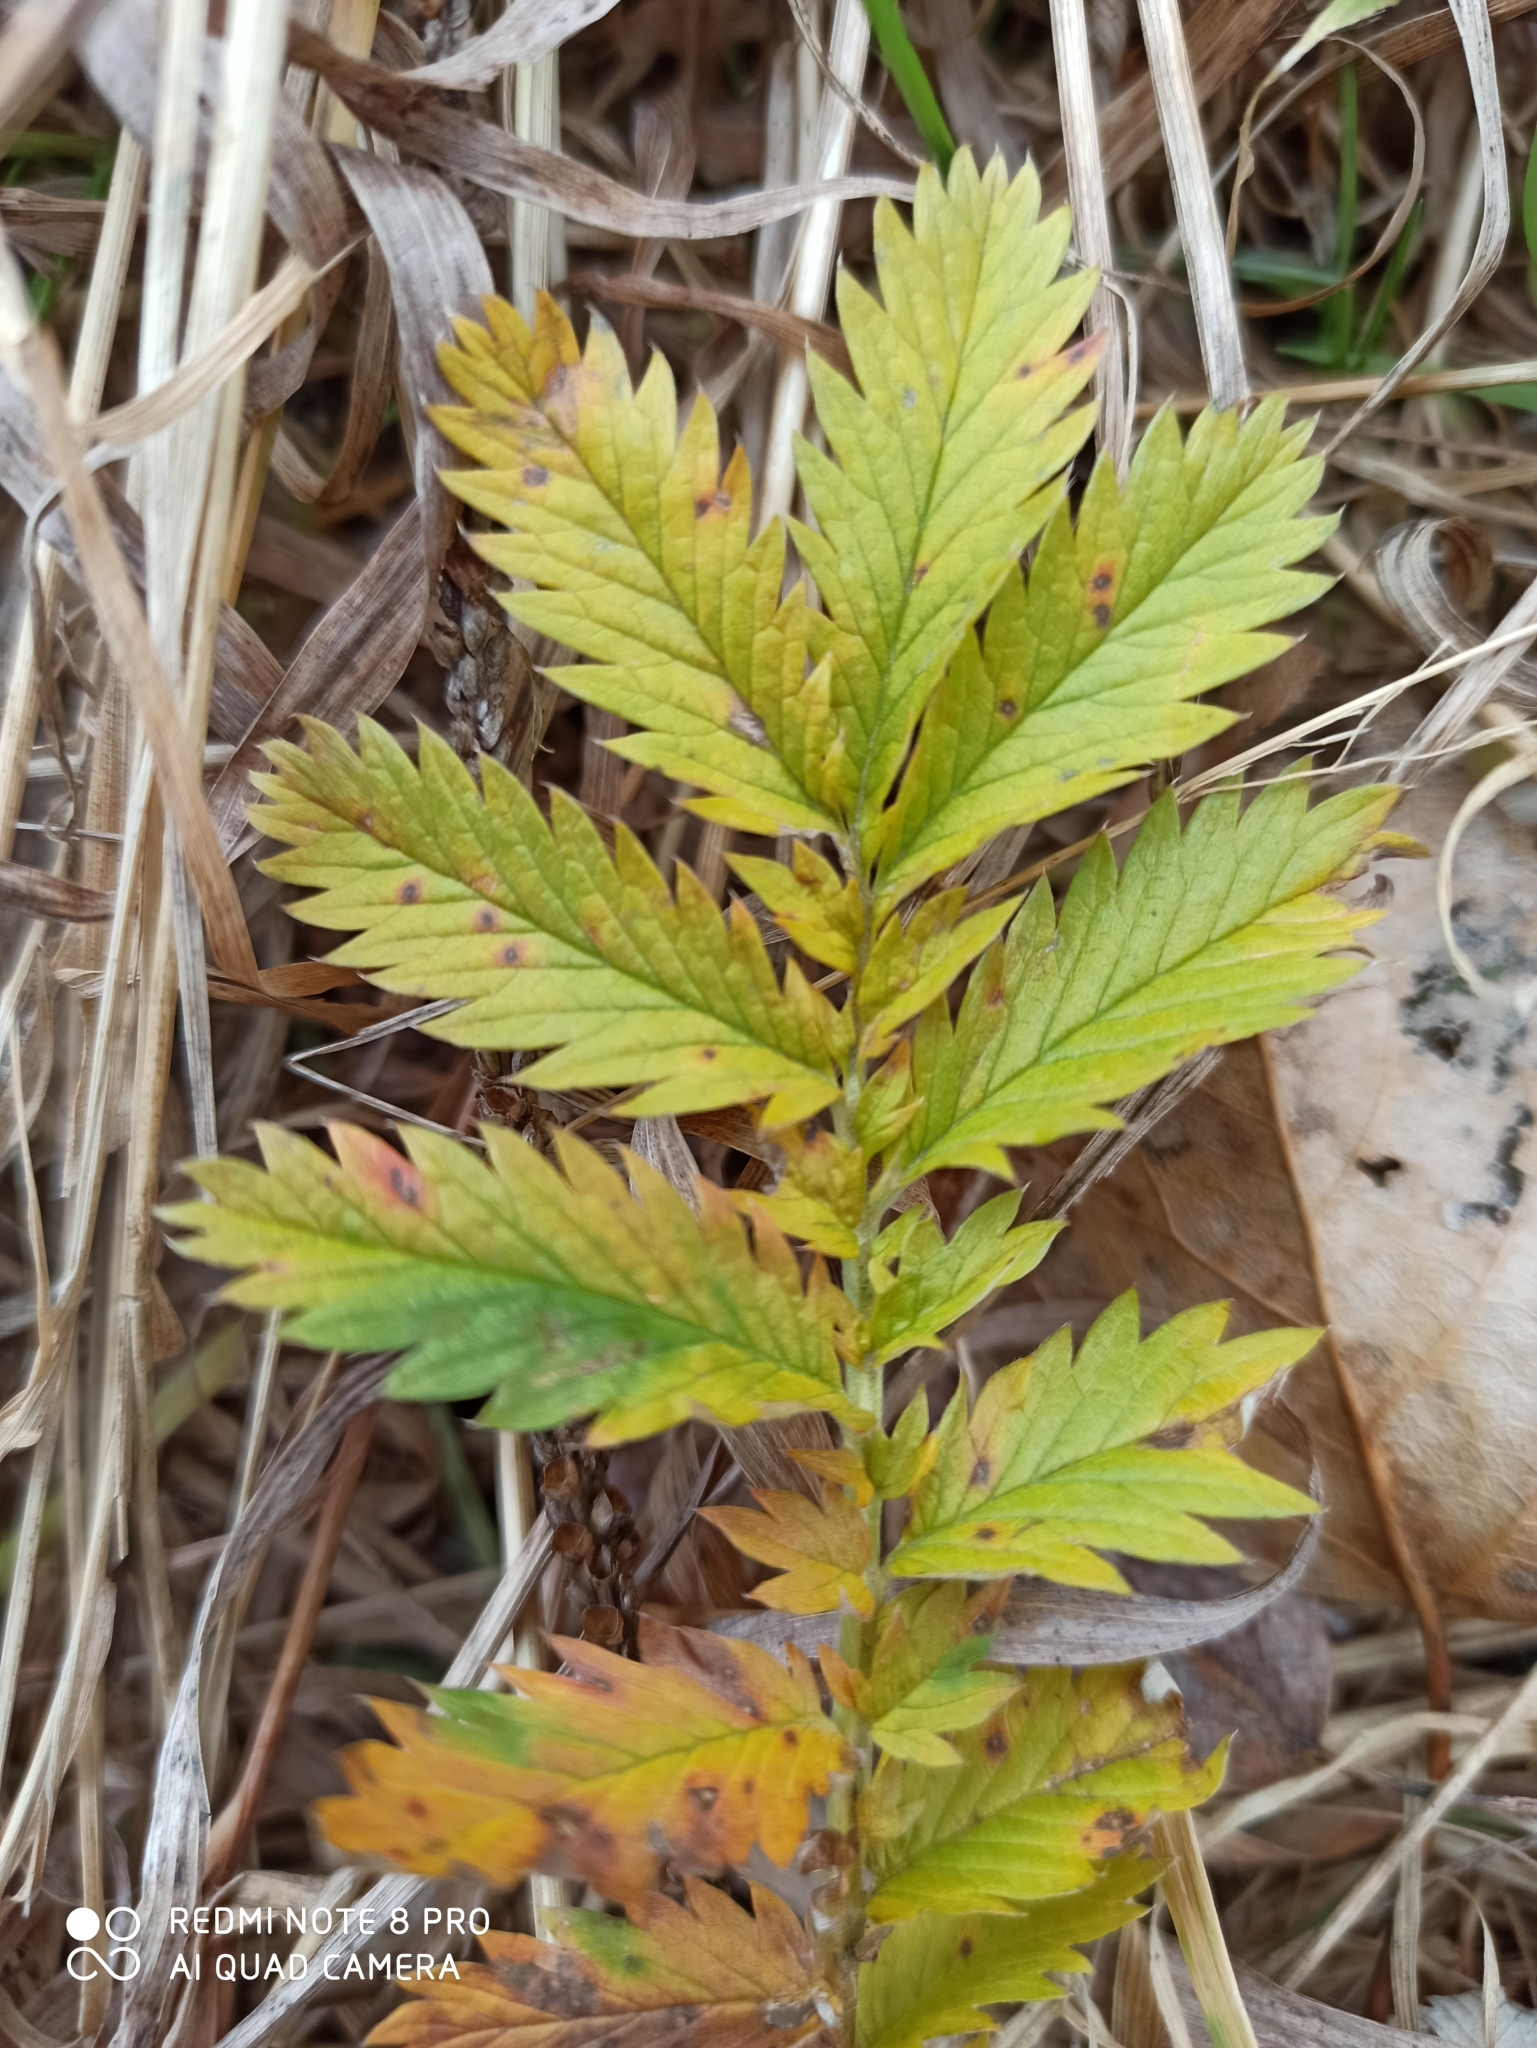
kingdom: Plantae
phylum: Tracheophyta
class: Magnoliopsida
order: Rosales
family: Rosaceae
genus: Argentina
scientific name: Argentina anserina
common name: Common silverweed
